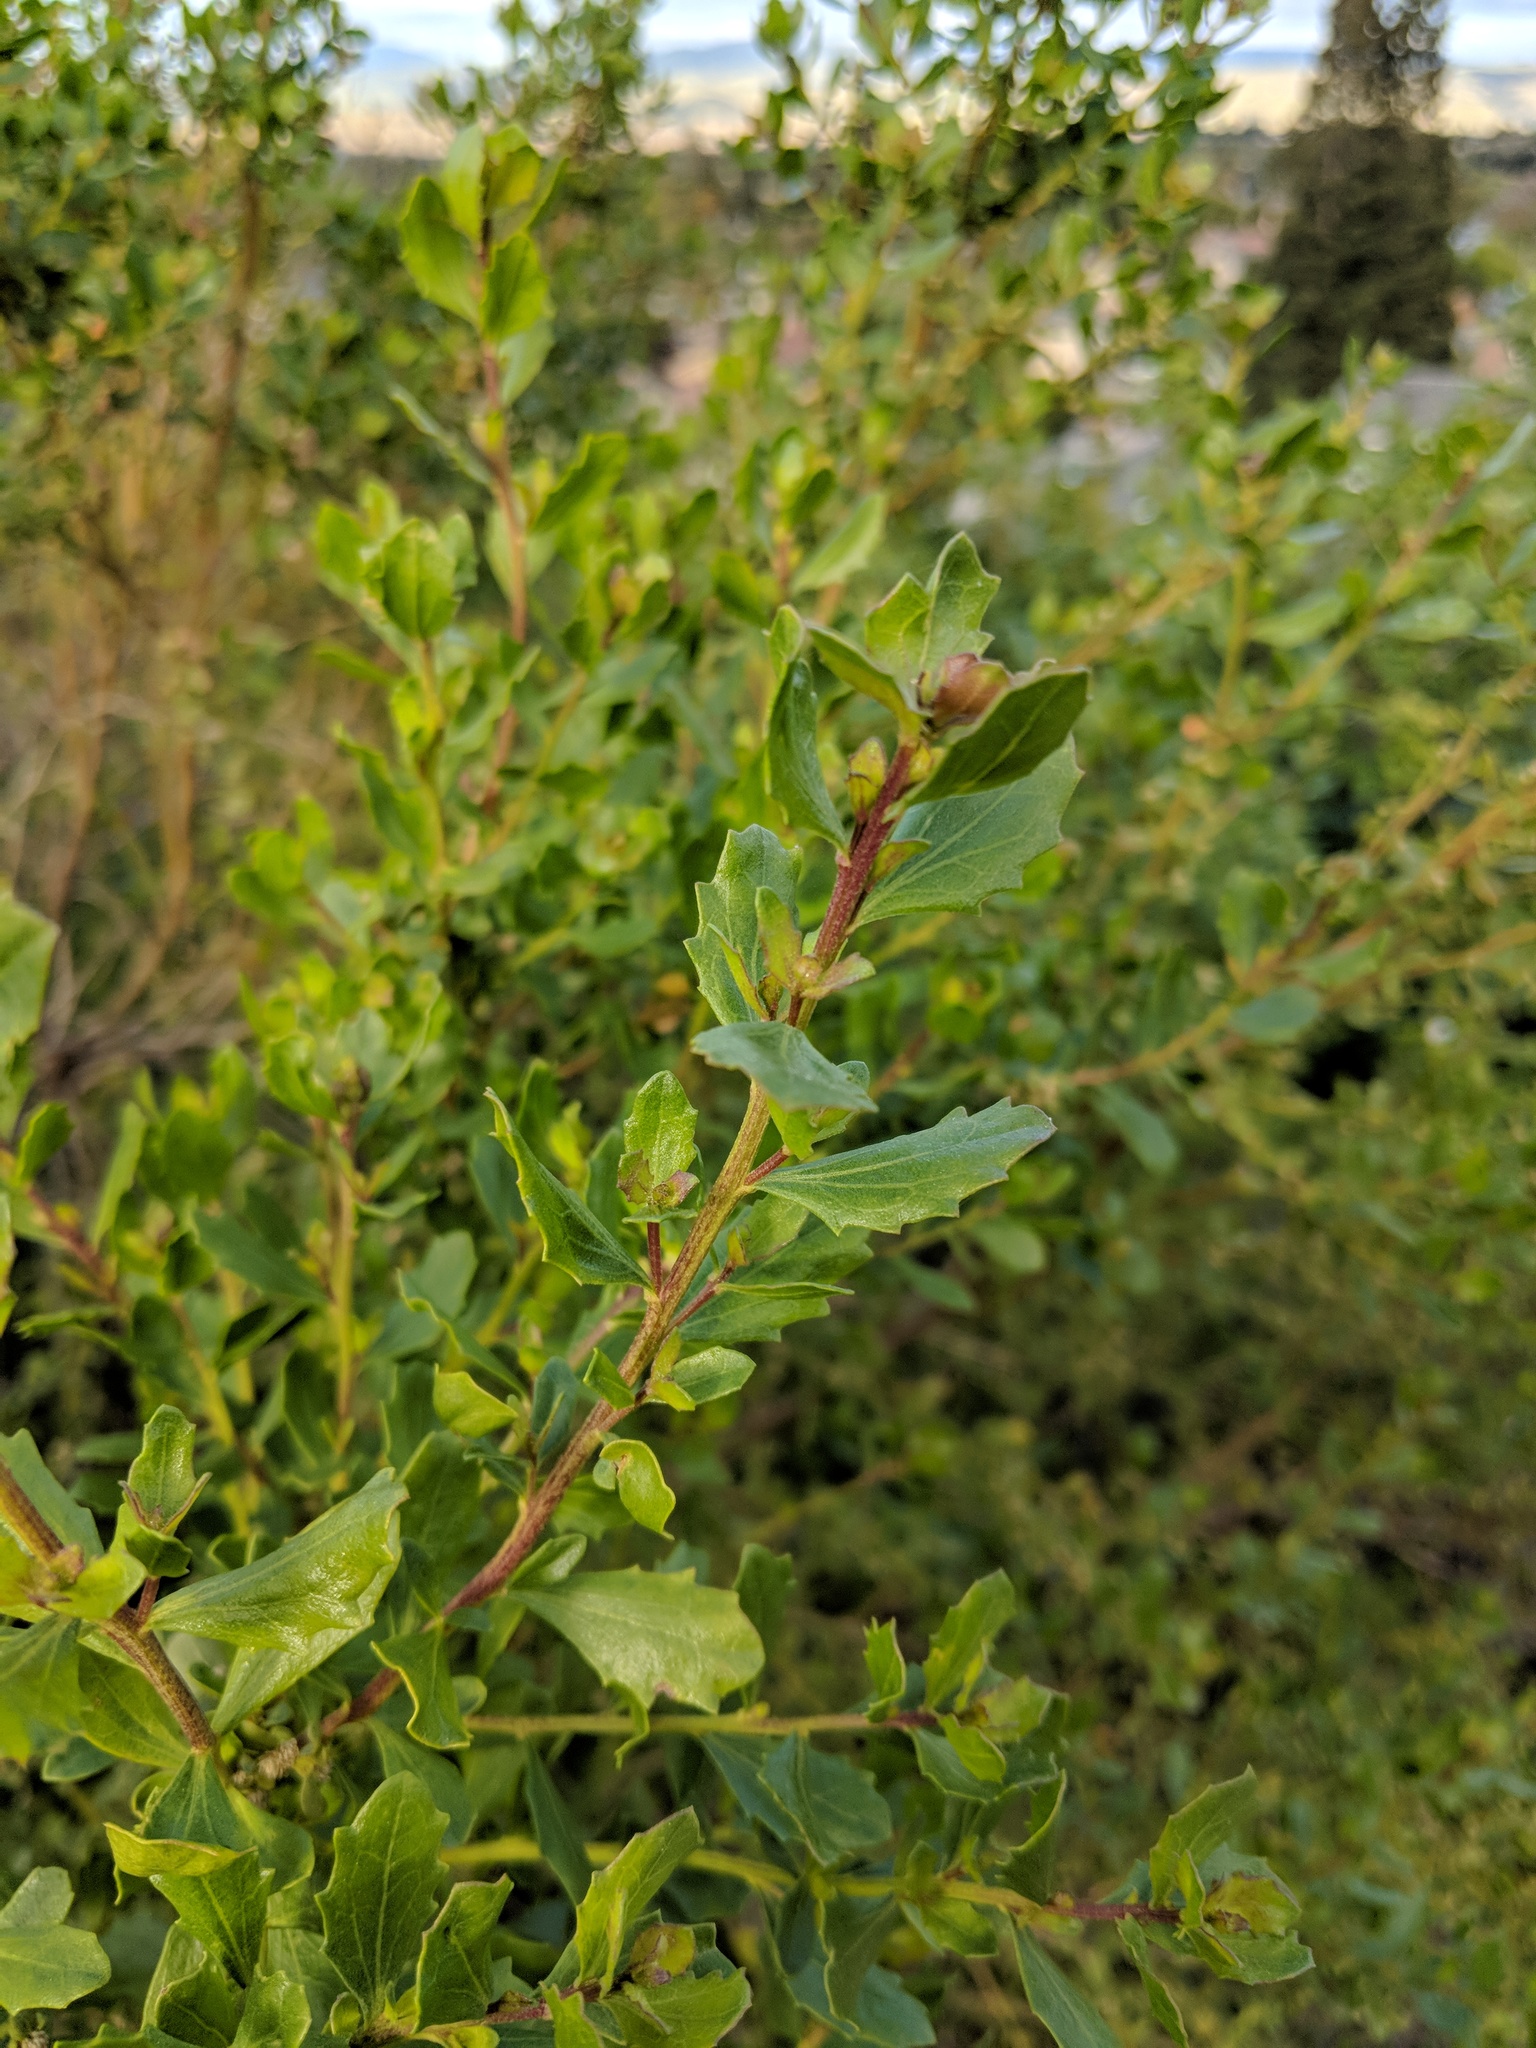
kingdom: Plantae
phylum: Tracheophyta
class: Magnoliopsida
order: Asterales
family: Asteraceae
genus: Baccharis
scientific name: Baccharis pilularis
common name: Coyotebrush
